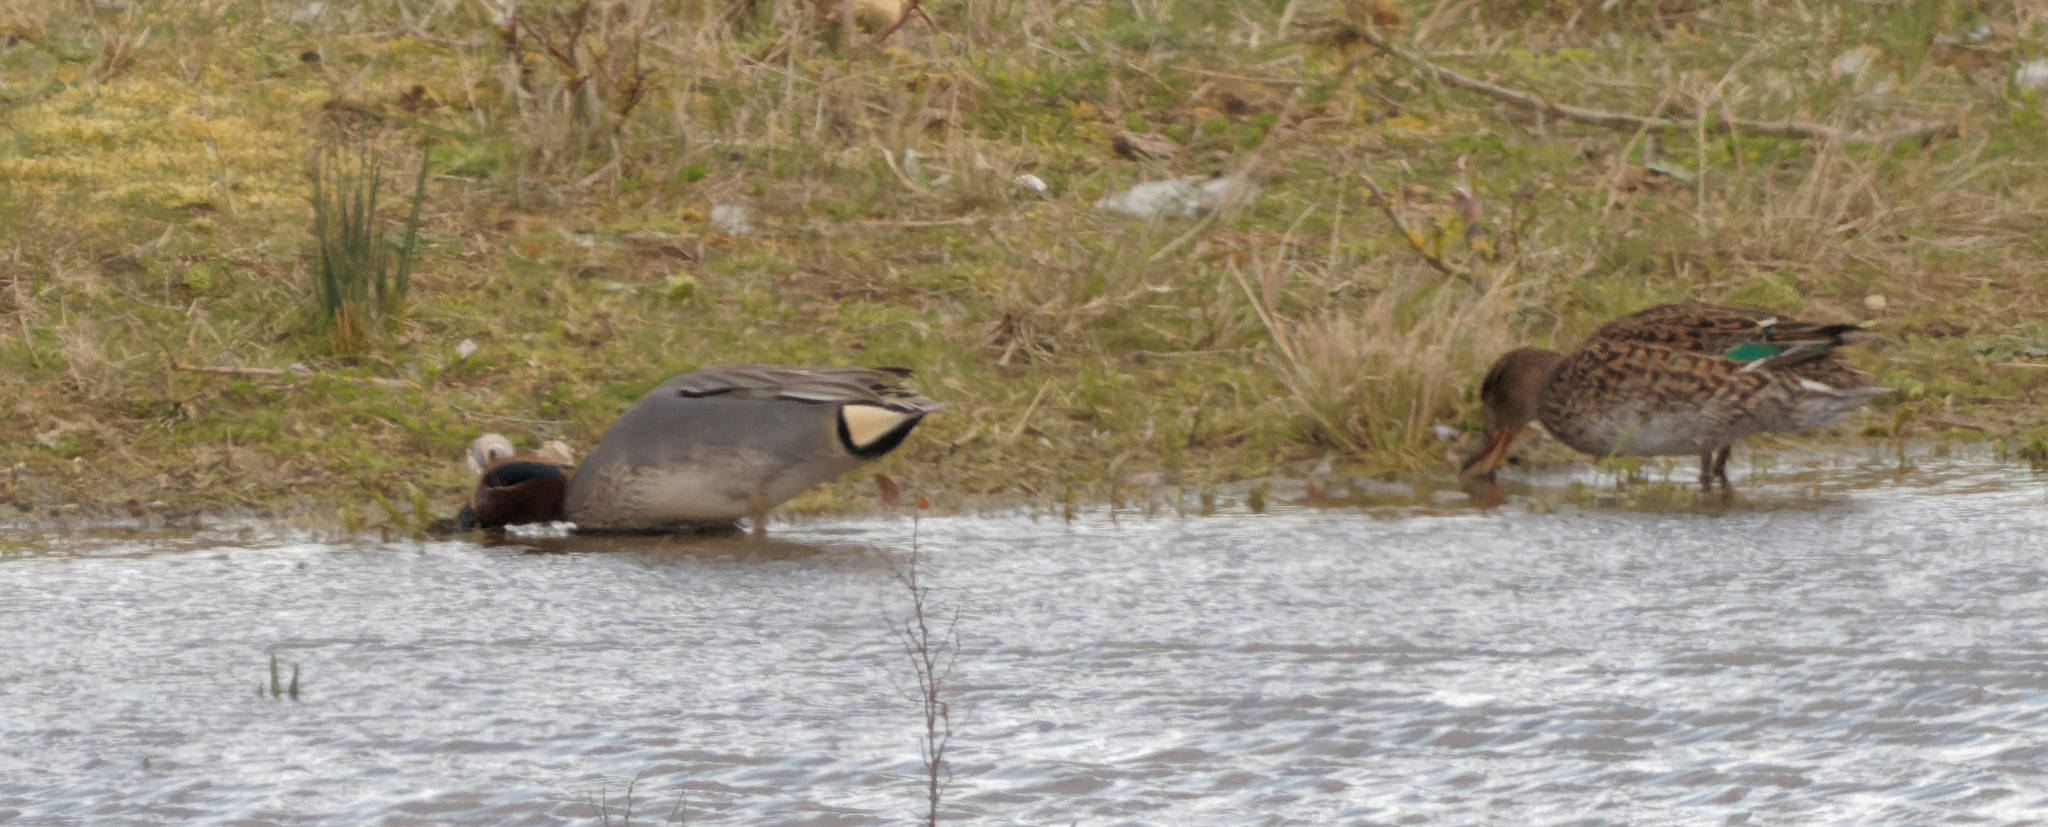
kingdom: Animalia
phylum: Chordata
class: Aves
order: Anseriformes
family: Anatidae
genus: Anas
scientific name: Anas crecca
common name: Eurasian teal
